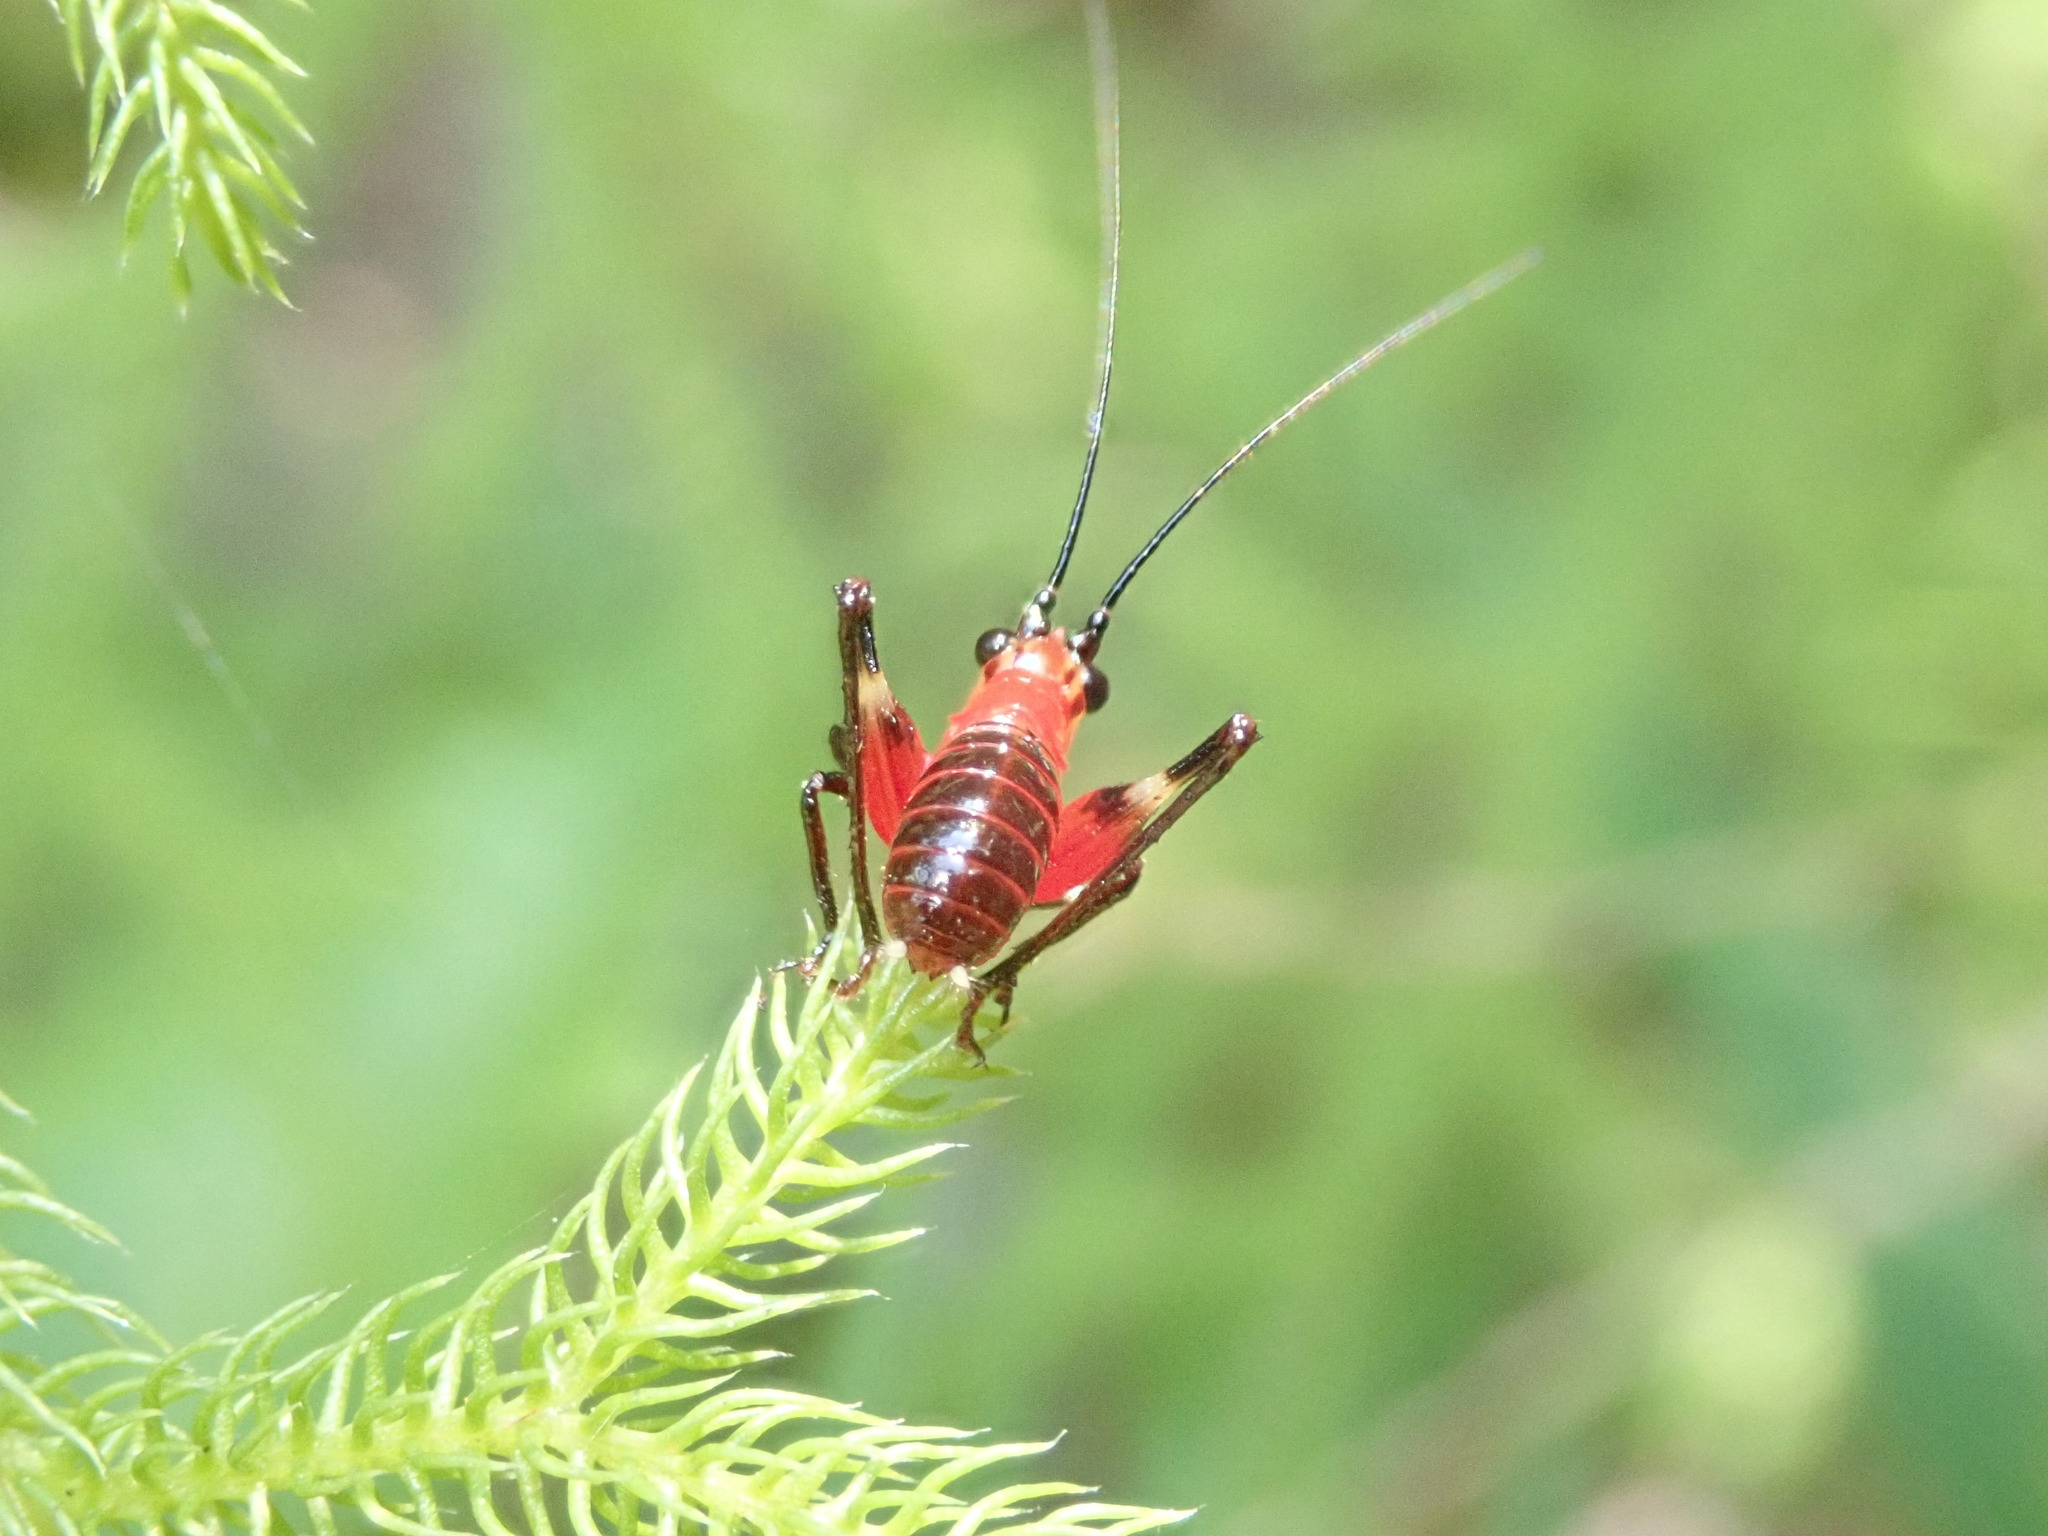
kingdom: Animalia
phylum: Arthropoda
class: Insecta
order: Orthoptera
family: Tettigoniidae
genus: Conocephalus
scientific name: Conocephalus melaenus
